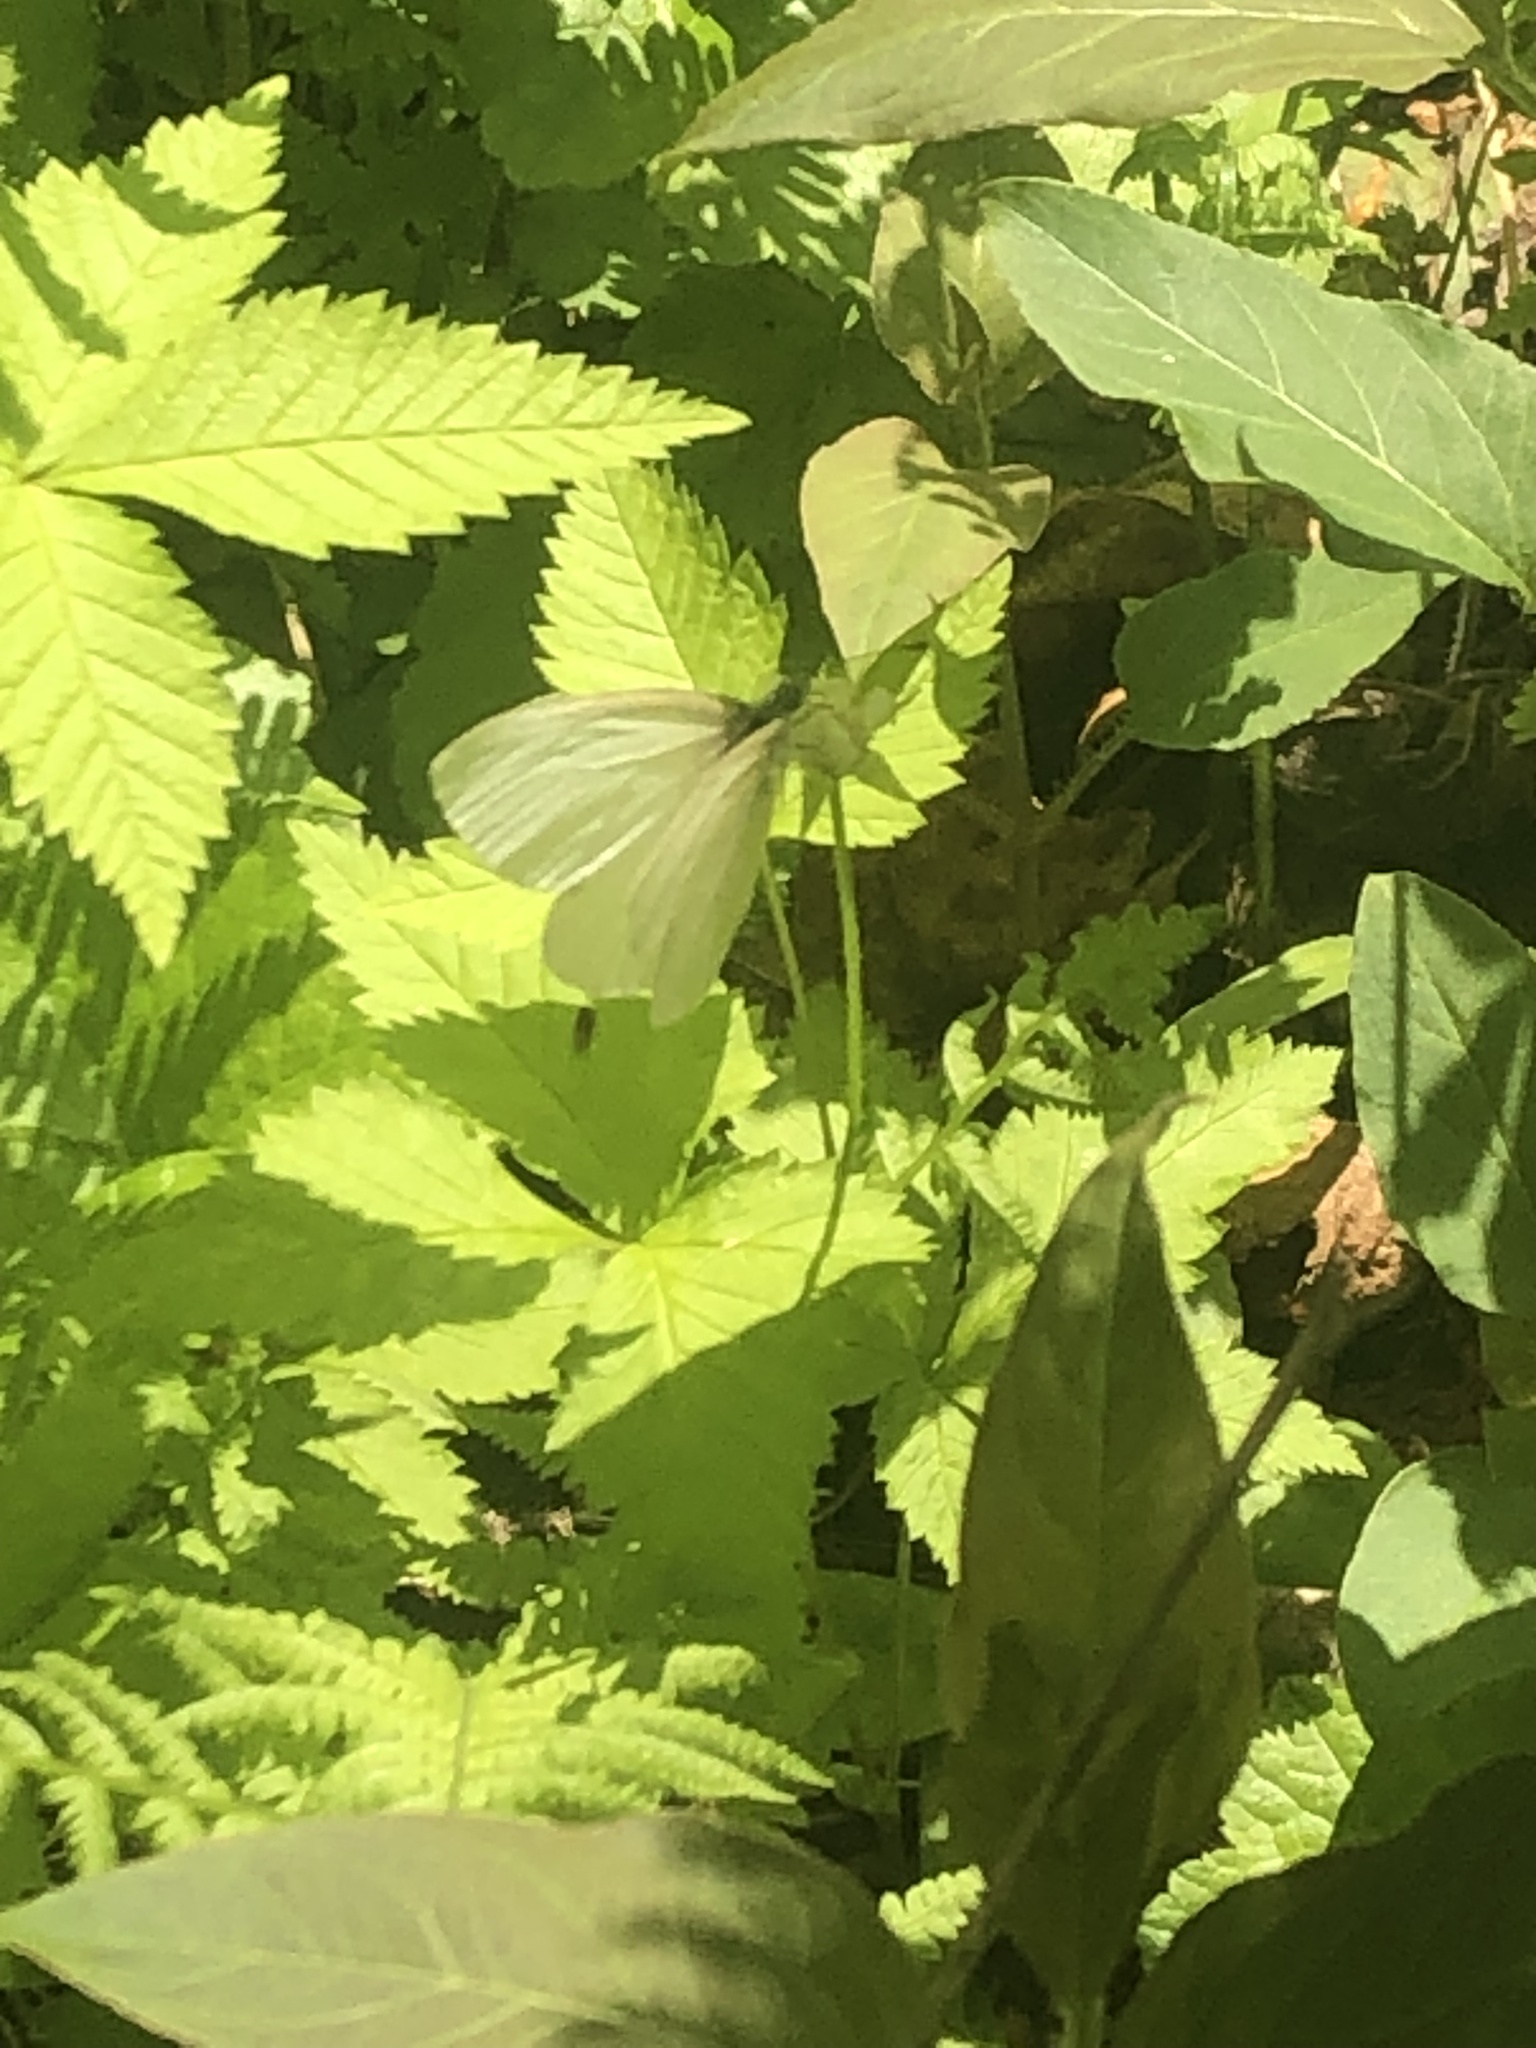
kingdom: Animalia
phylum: Arthropoda
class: Insecta
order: Lepidoptera
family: Pieridae
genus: Pieris
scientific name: Pieris virginiensis
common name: West virginia white
